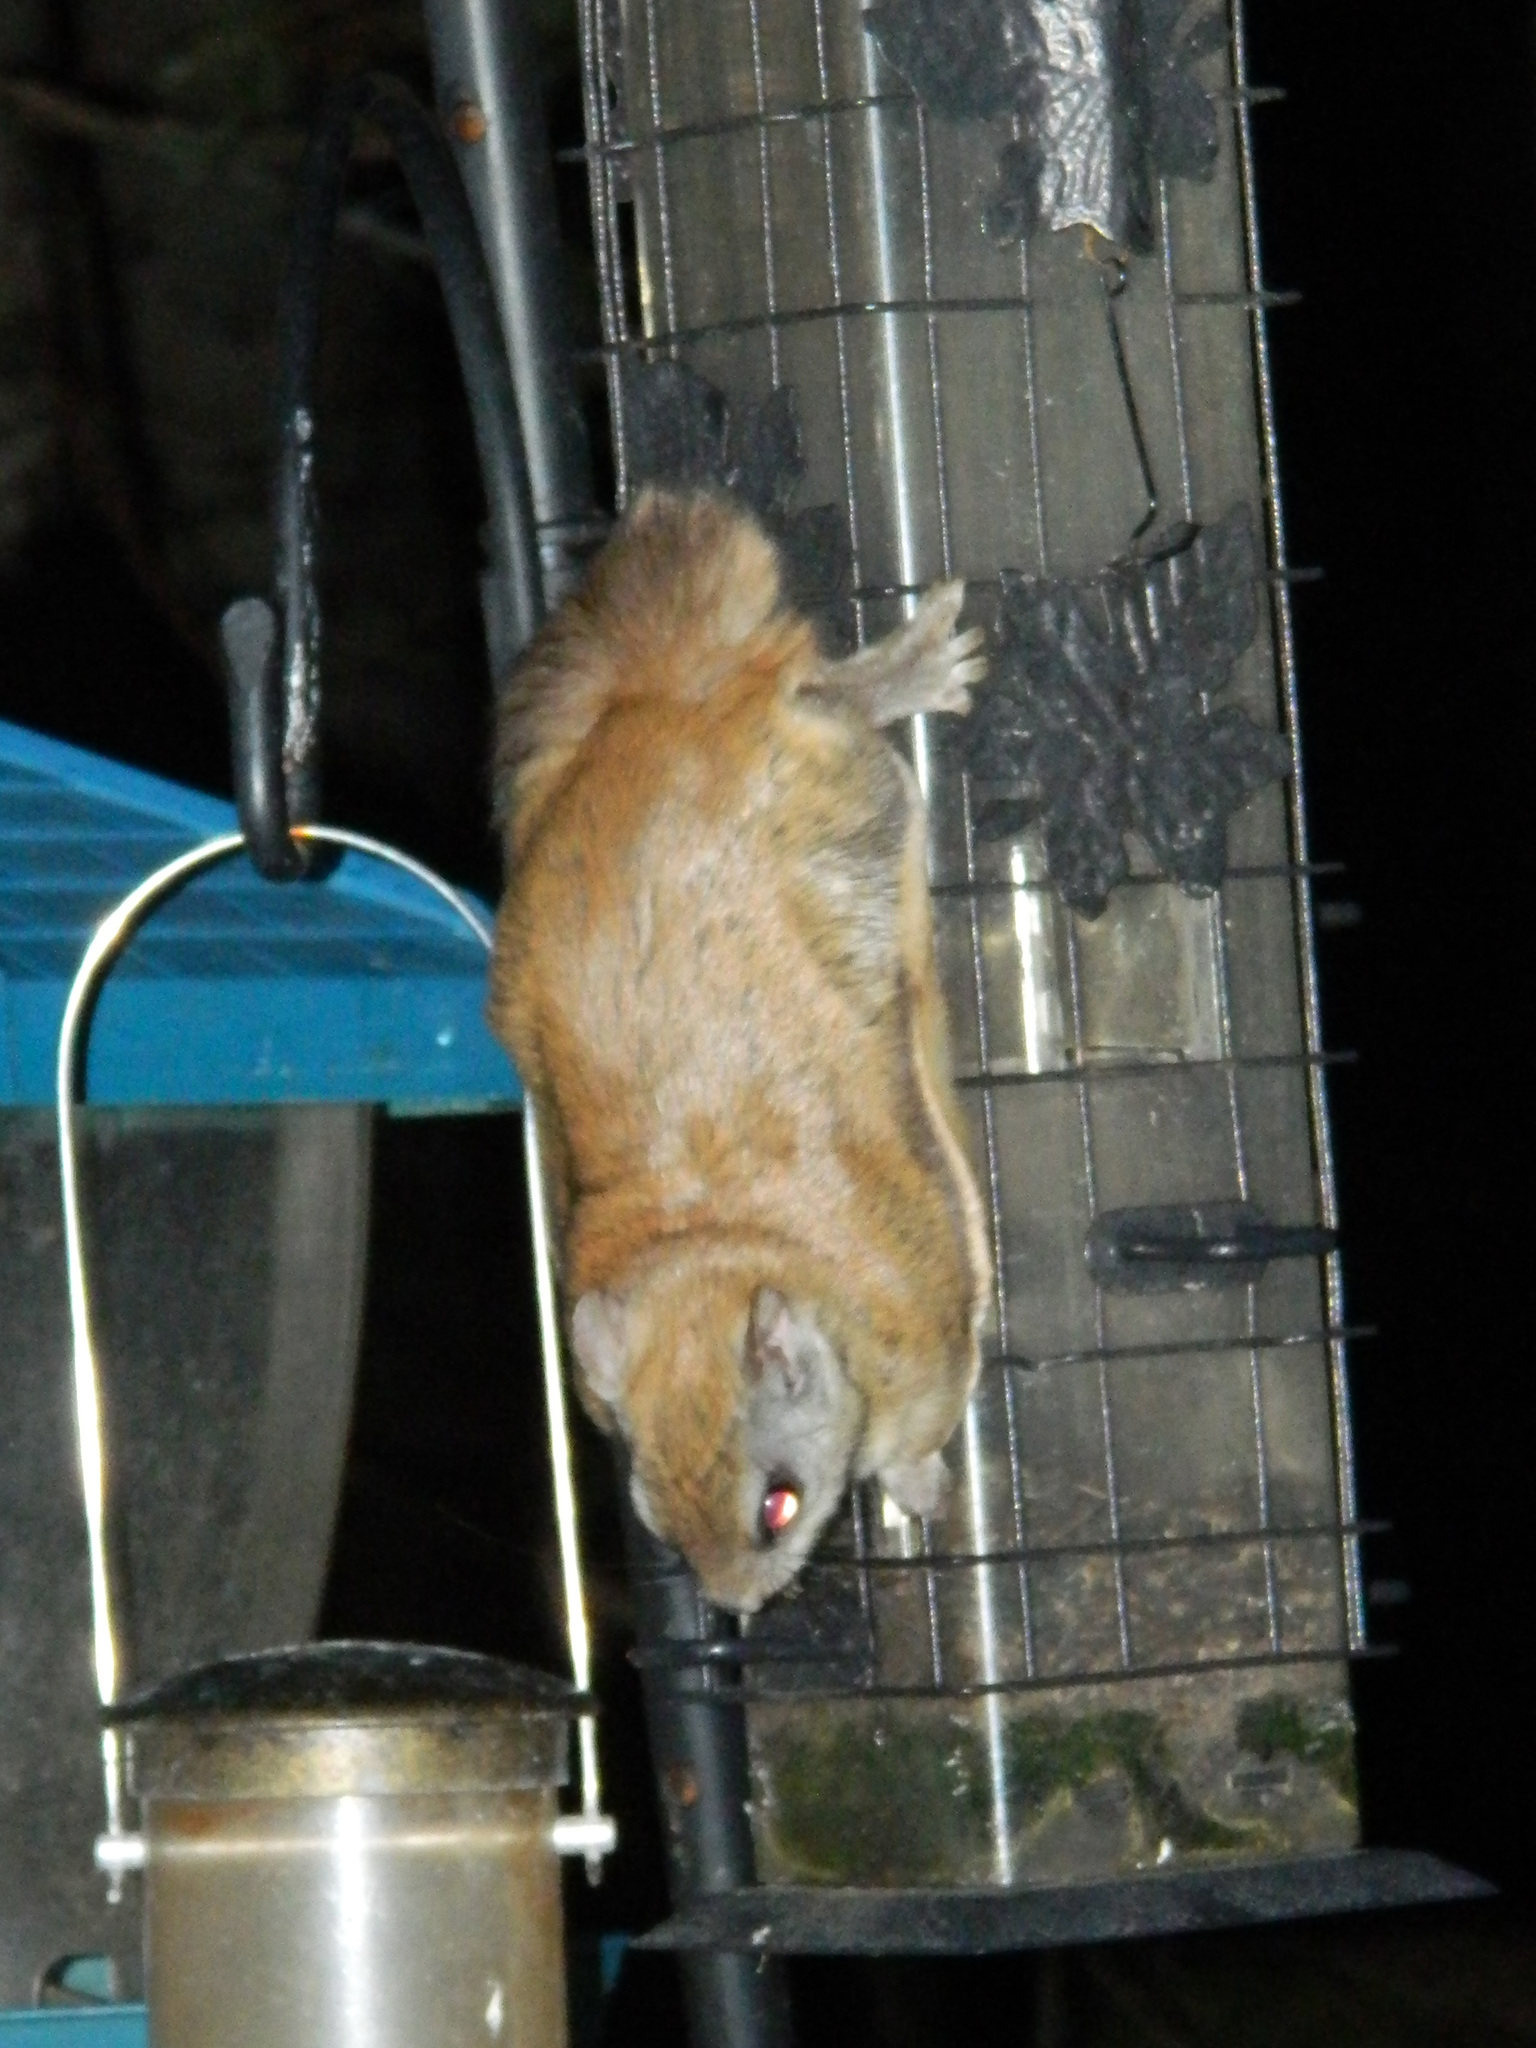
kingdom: Animalia
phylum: Chordata
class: Mammalia
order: Rodentia
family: Sciuridae
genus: Glaucomys
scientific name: Glaucomys sabrinus
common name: Northern flying squirrel
